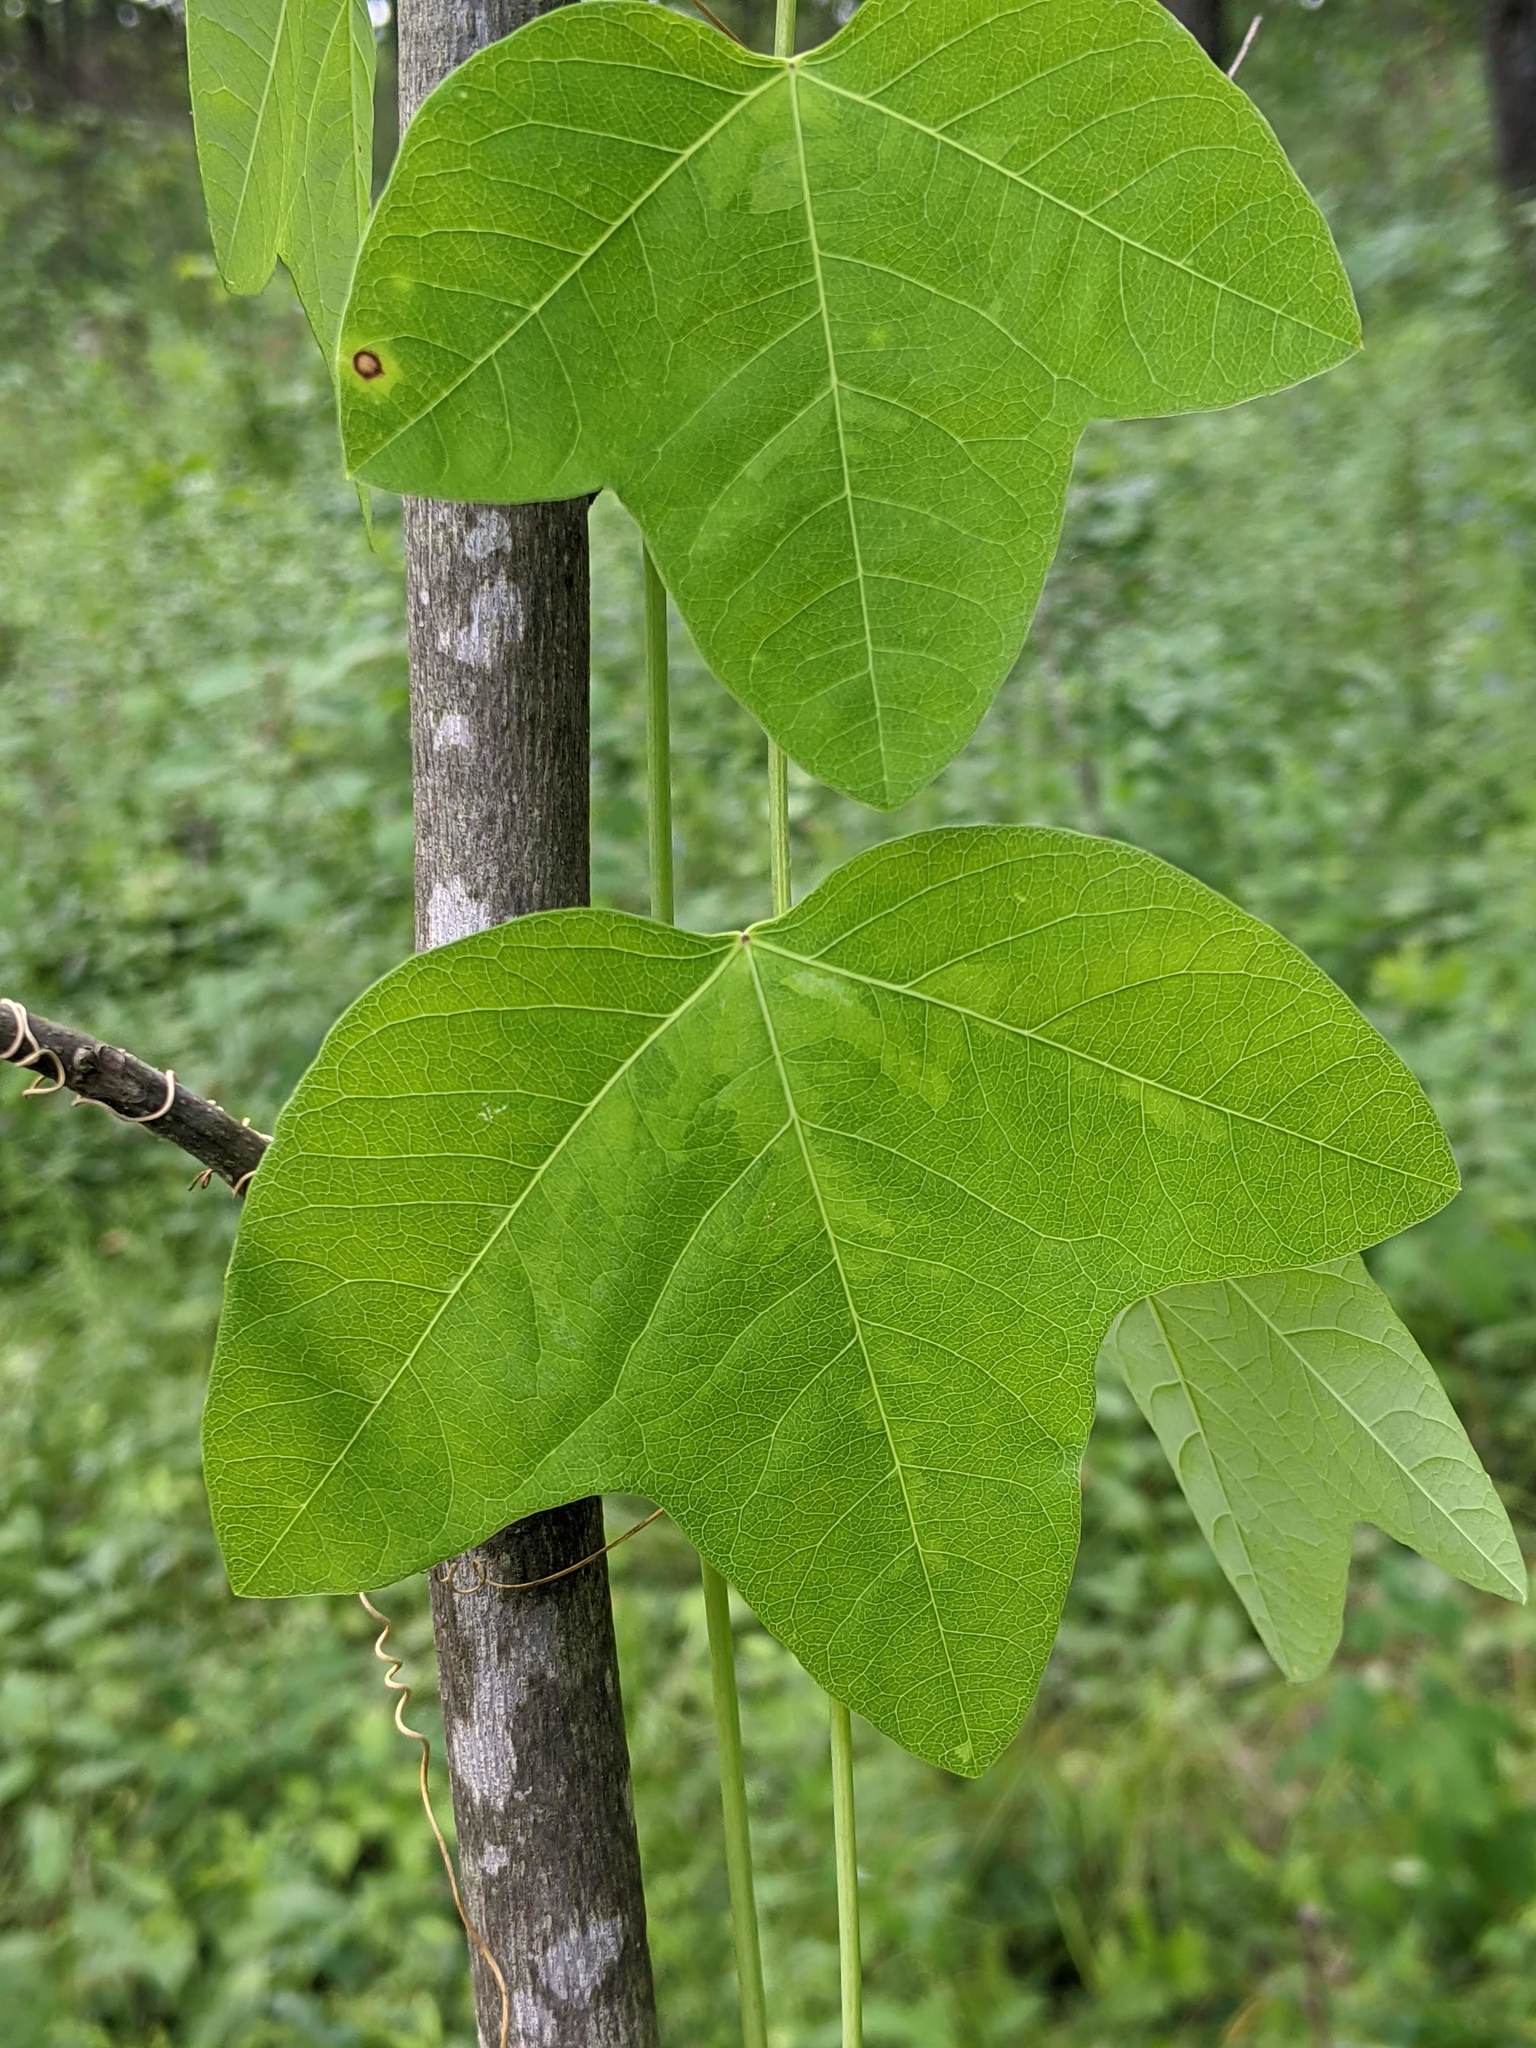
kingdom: Plantae
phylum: Tracheophyta
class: Magnoliopsida
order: Malpighiales
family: Passifloraceae
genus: Passiflora
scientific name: Passiflora lutea
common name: Yellow passionflower
